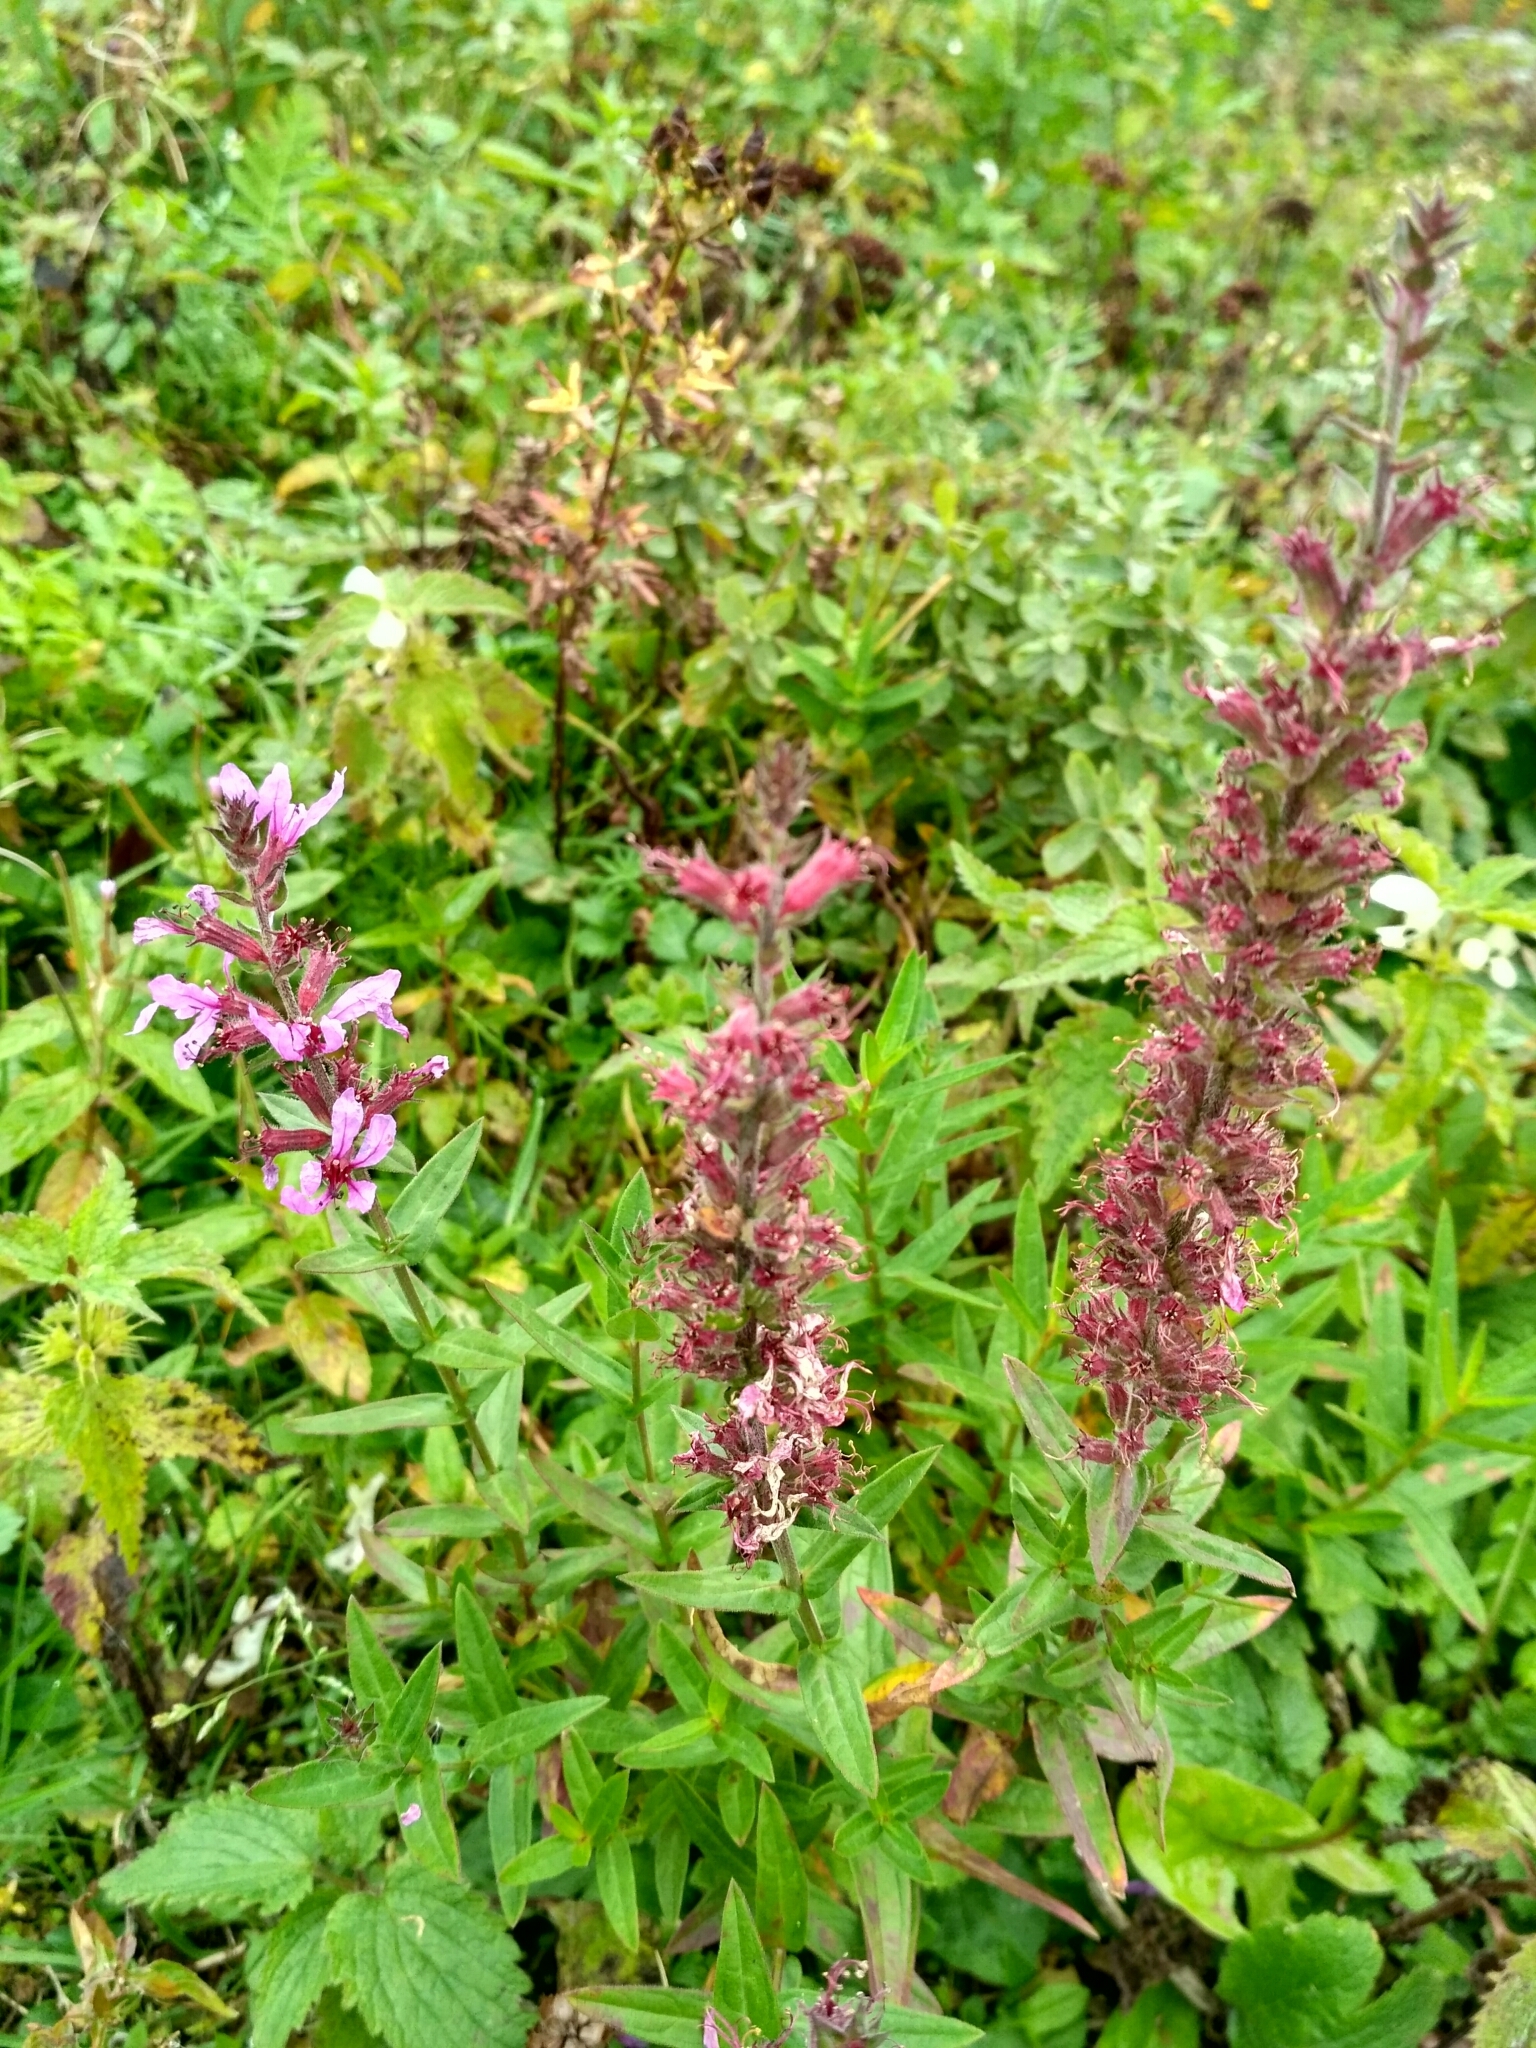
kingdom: Plantae
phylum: Tracheophyta
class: Magnoliopsida
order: Myrtales
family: Lythraceae
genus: Lythrum
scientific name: Lythrum salicaria
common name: Purple loosestrife
